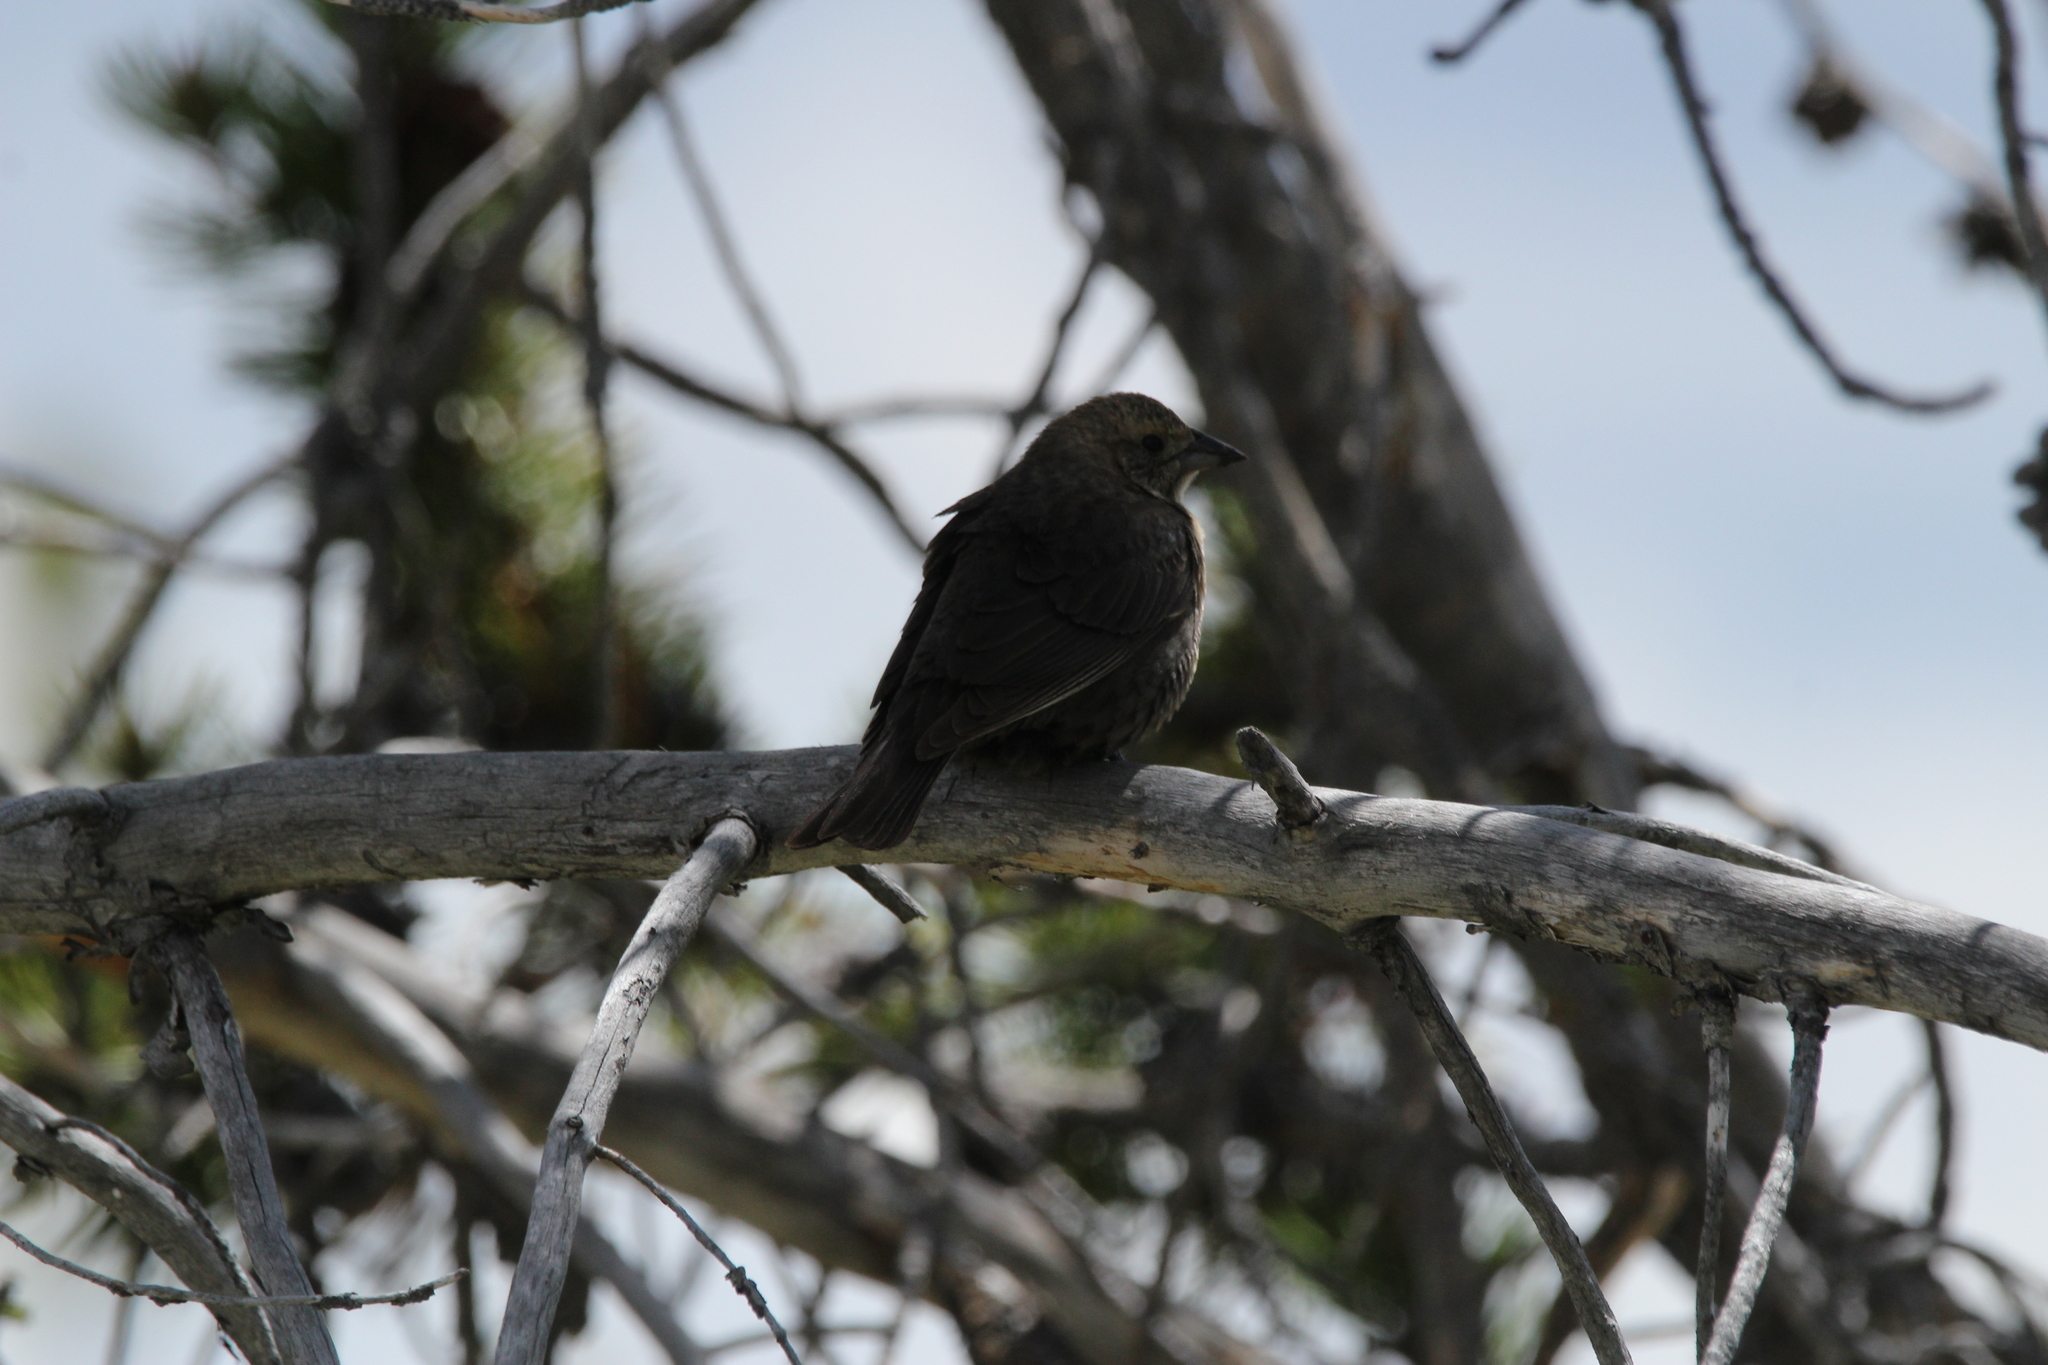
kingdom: Animalia
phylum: Chordata
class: Aves
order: Passeriformes
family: Icteridae
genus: Molothrus
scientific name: Molothrus ater
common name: Brown-headed cowbird
